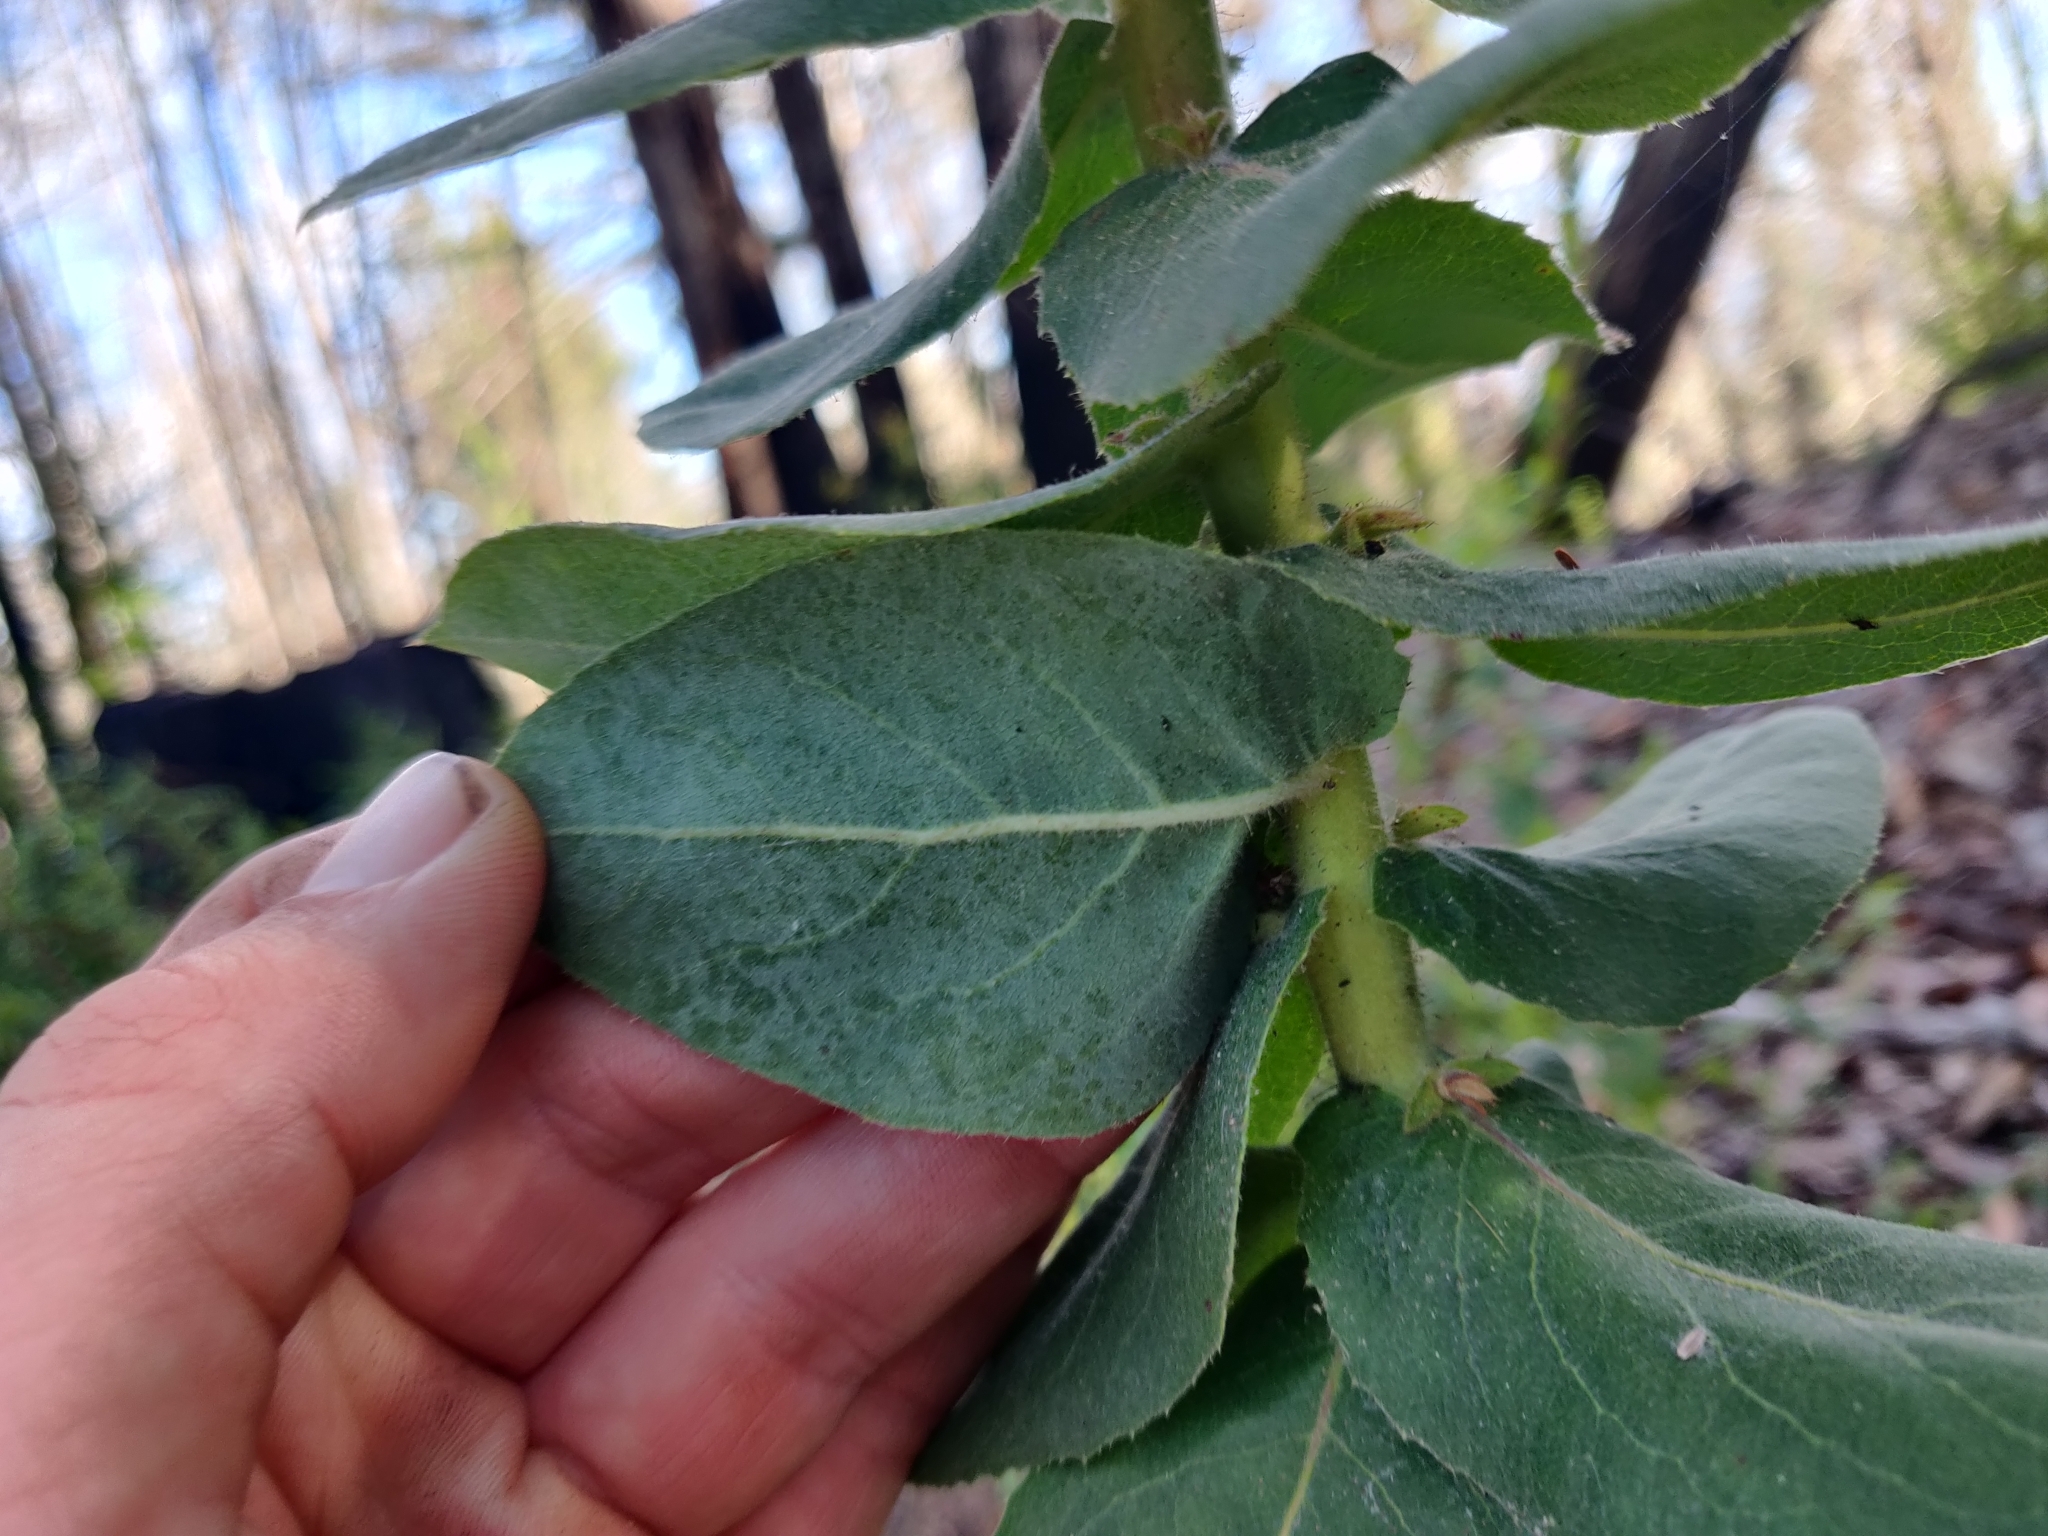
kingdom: Plantae
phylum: Tracheophyta
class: Magnoliopsida
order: Ericales
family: Ericaceae
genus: Arctostaphylos
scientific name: Arctostaphylos andersonii
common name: Santa cruz manzanita
